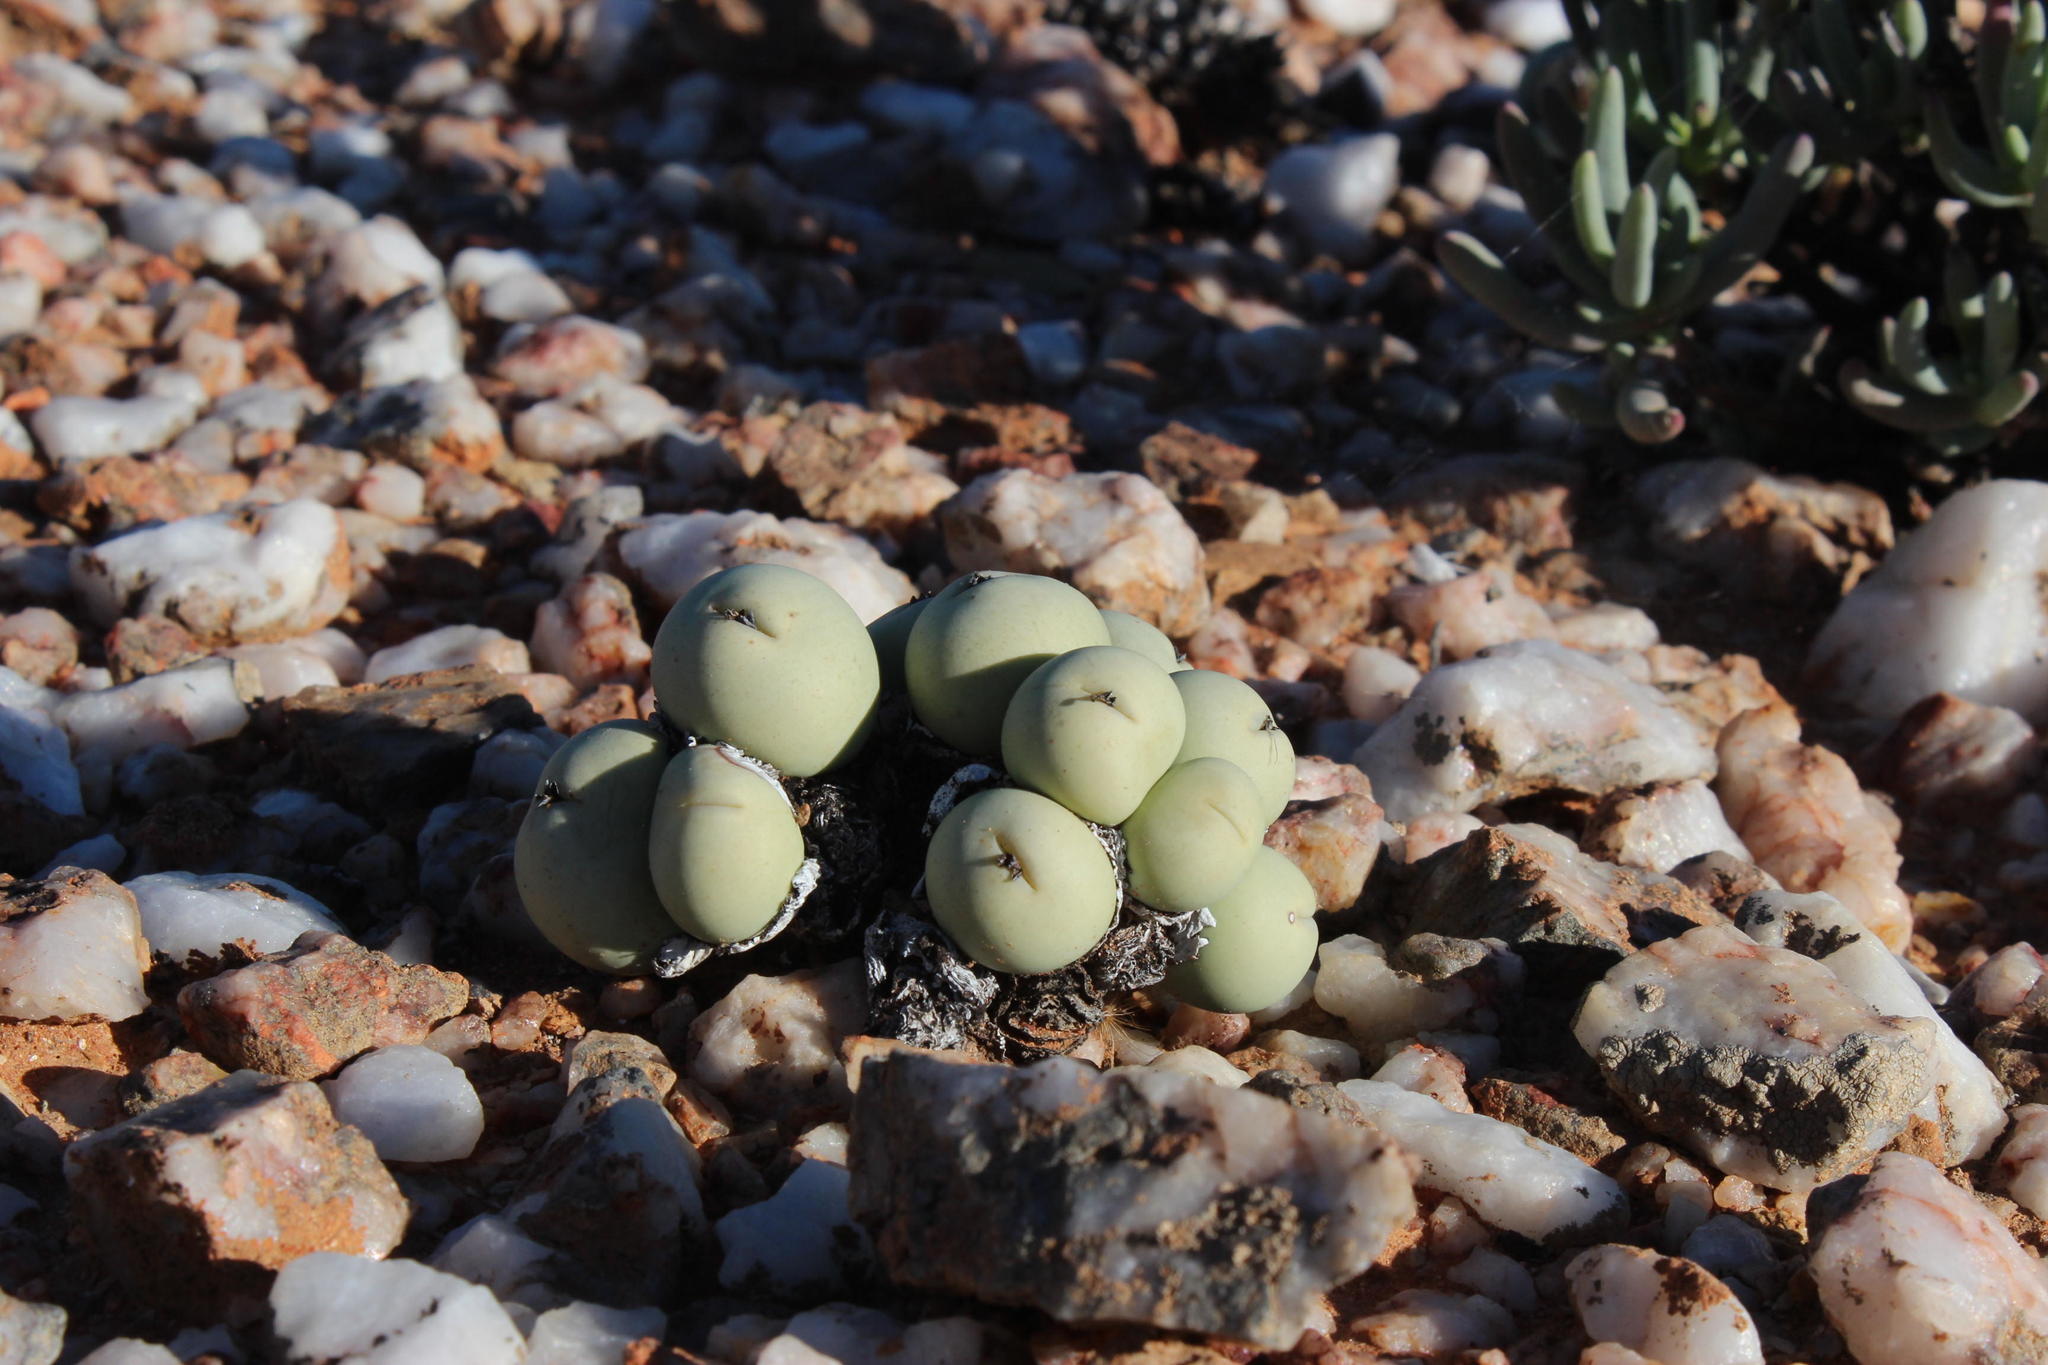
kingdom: Plantae
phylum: Tracheophyta
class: Magnoliopsida
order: Caryophyllales
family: Aizoaceae
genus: Conophytum
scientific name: Conophytum calculus
